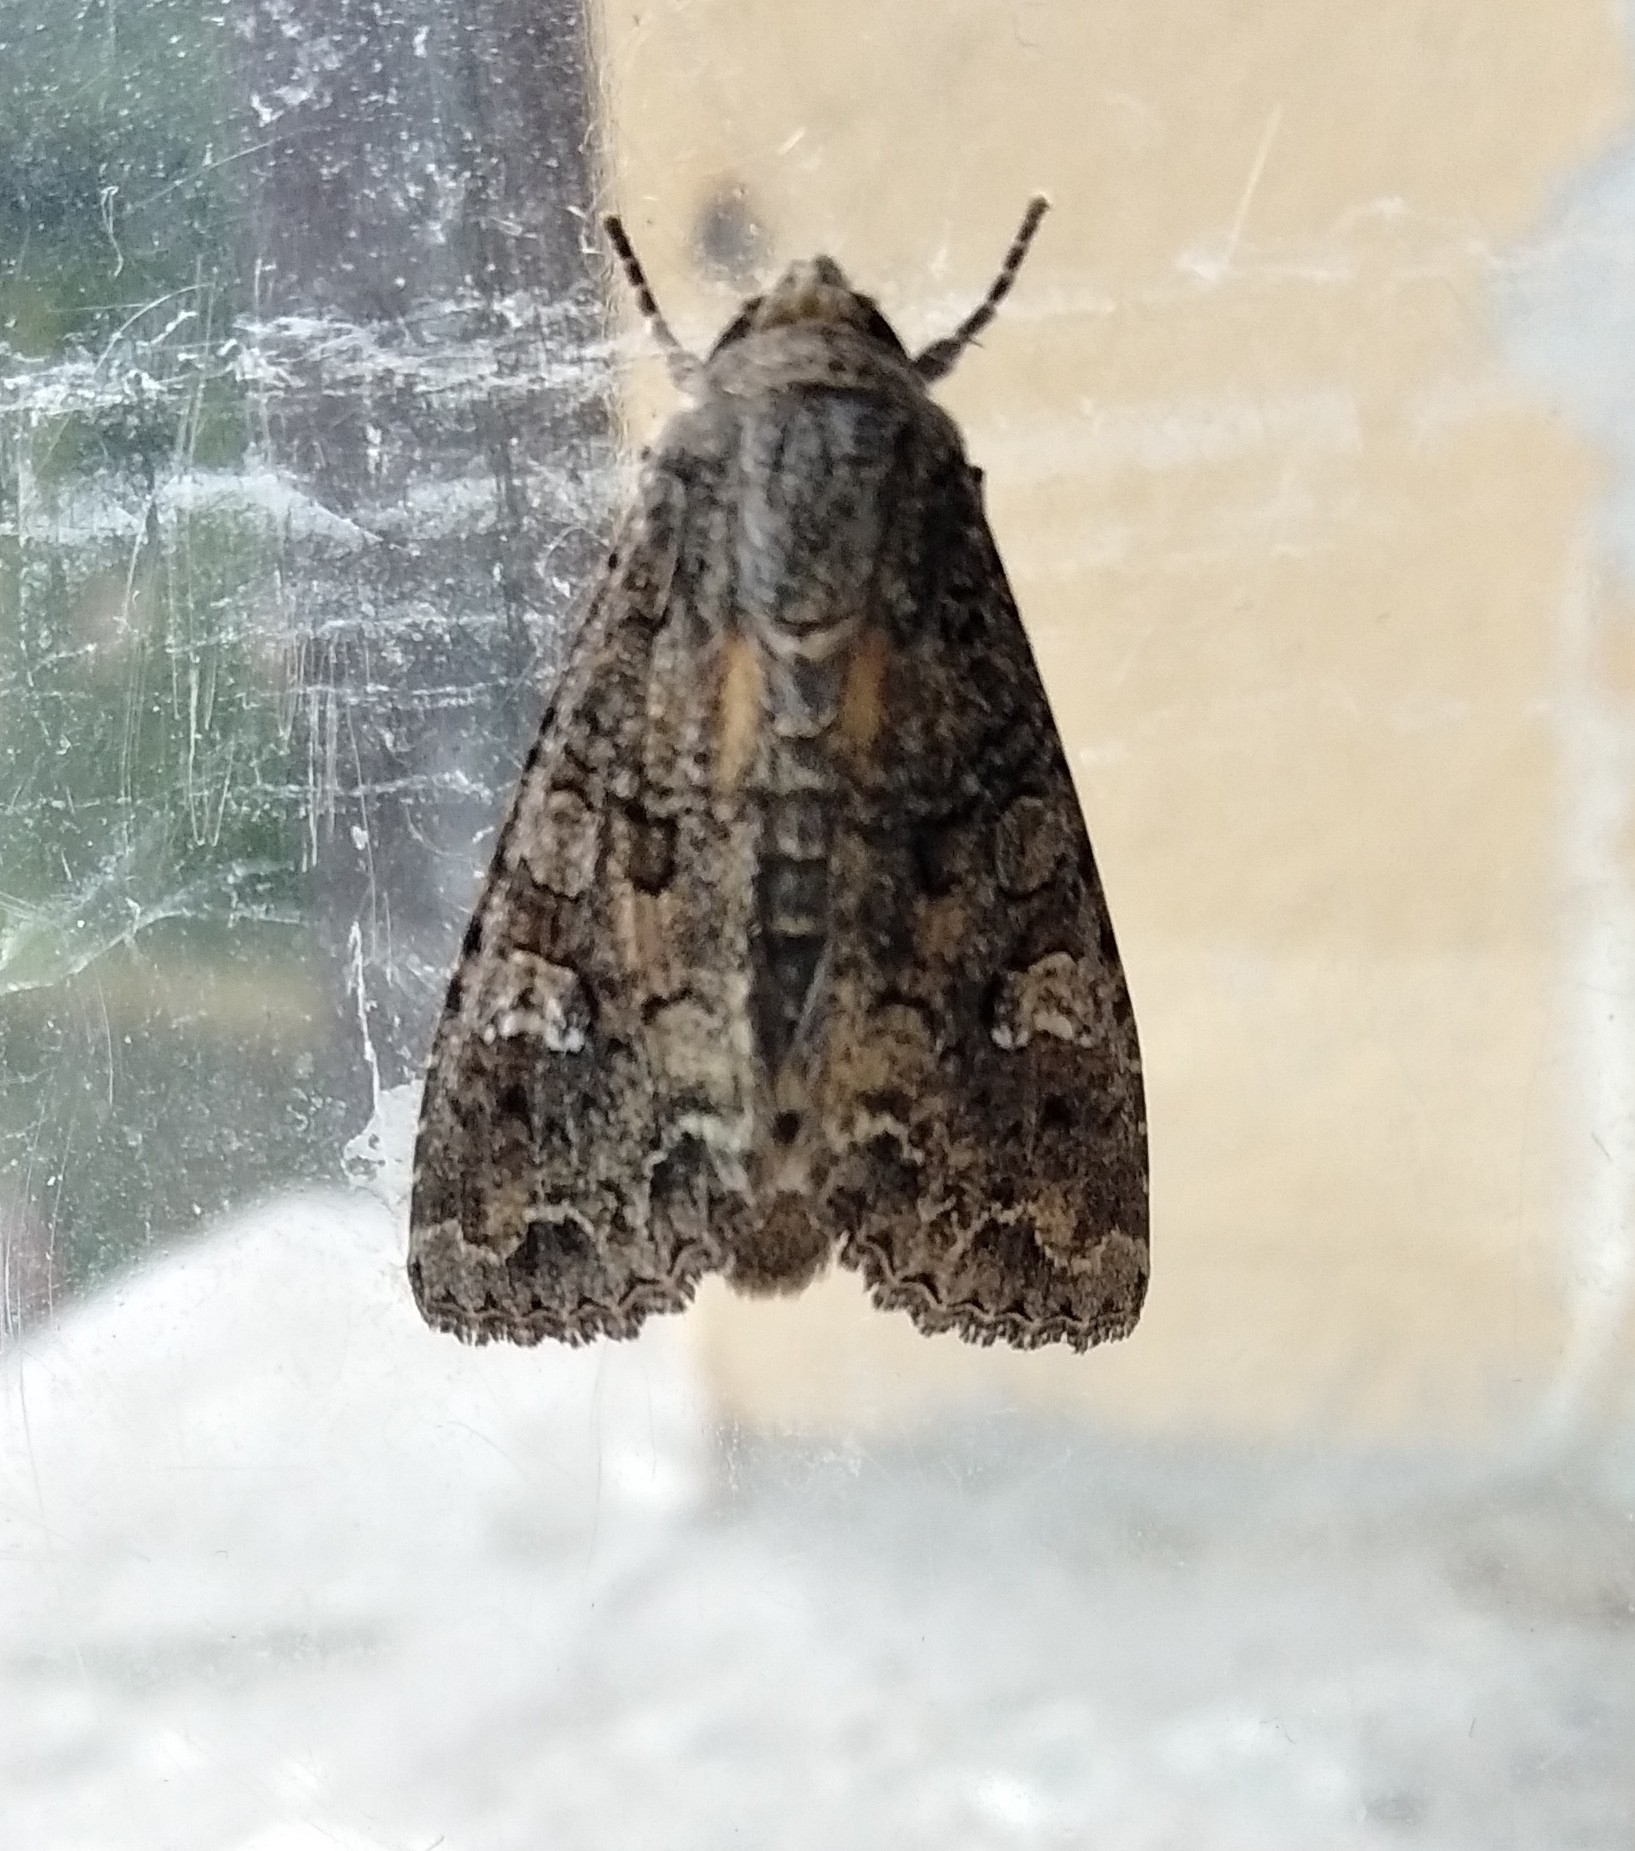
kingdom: Animalia
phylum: Arthropoda
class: Insecta
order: Lepidoptera
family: Noctuidae
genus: Mamestra
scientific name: Mamestra brassicae
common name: Cabbage moth
